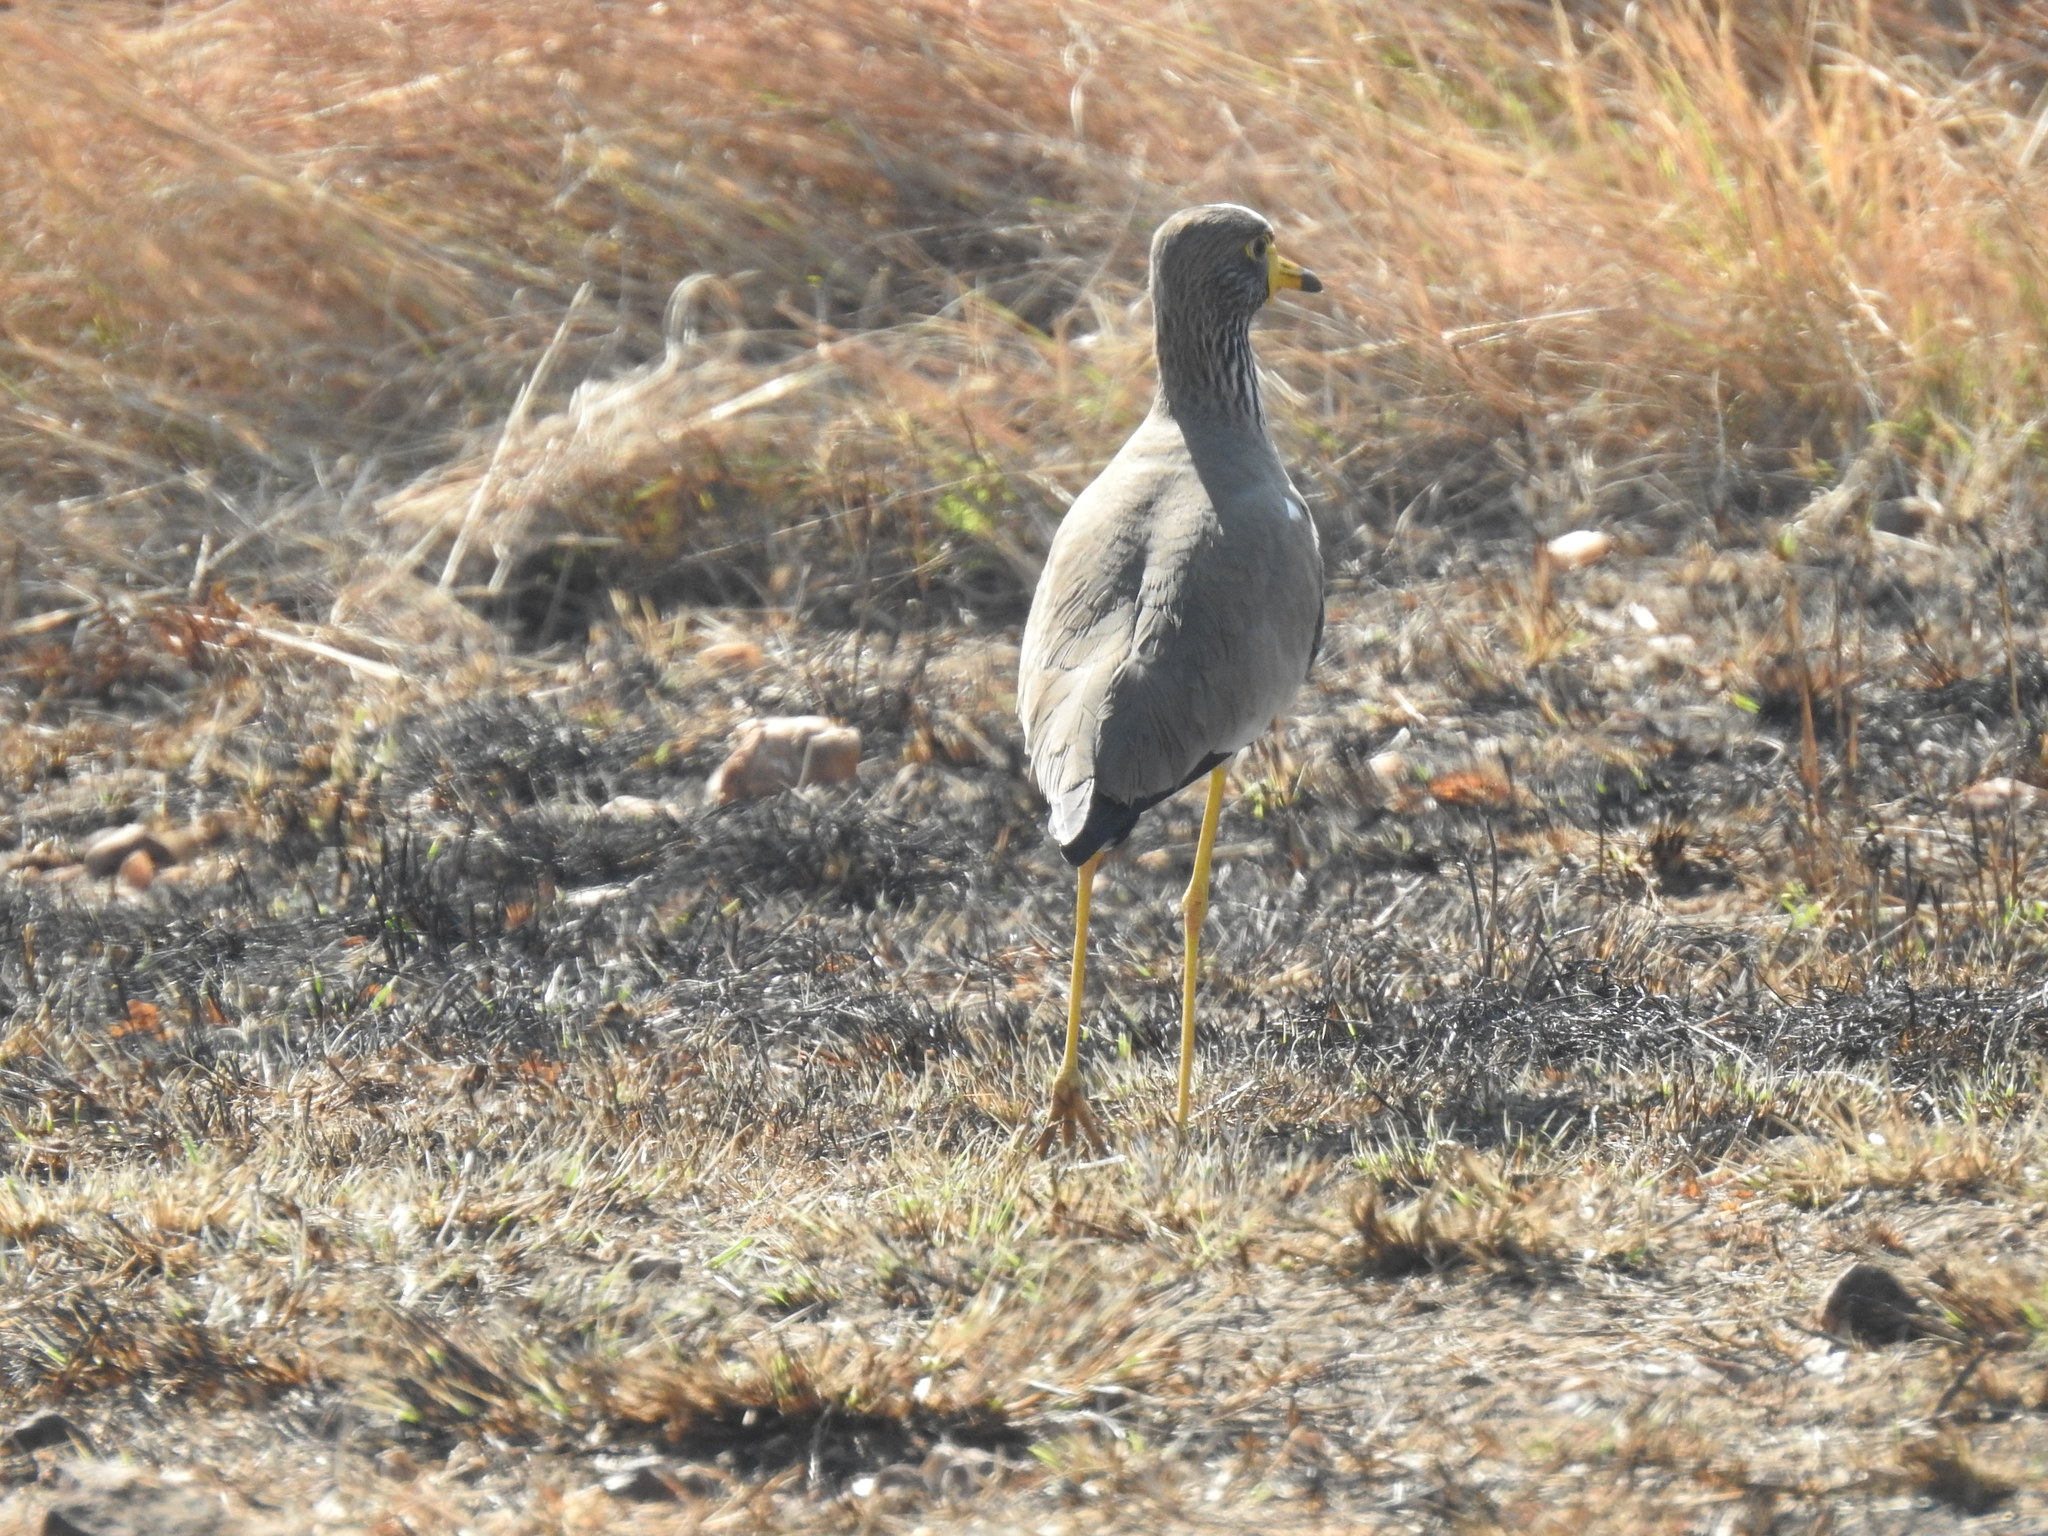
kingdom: Animalia
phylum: Chordata
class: Aves
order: Charadriiformes
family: Charadriidae
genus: Vanellus
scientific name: Vanellus senegallus
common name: African wattled lapwing
